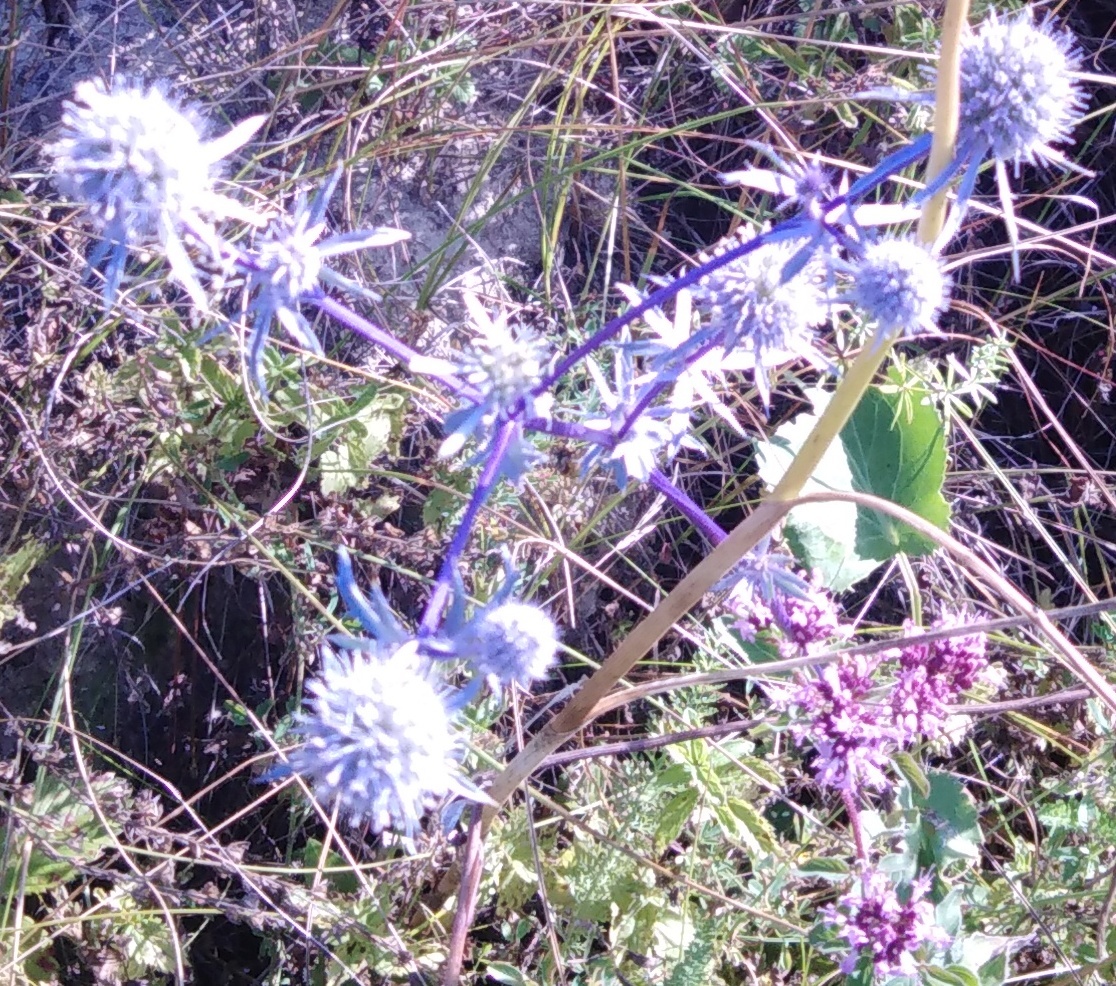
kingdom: Plantae
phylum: Tracheophyta
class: Magnoliopsida
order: Apiales
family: Apiaceae
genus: Eryngium
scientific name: Eryngium planum
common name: Blue eryngo
